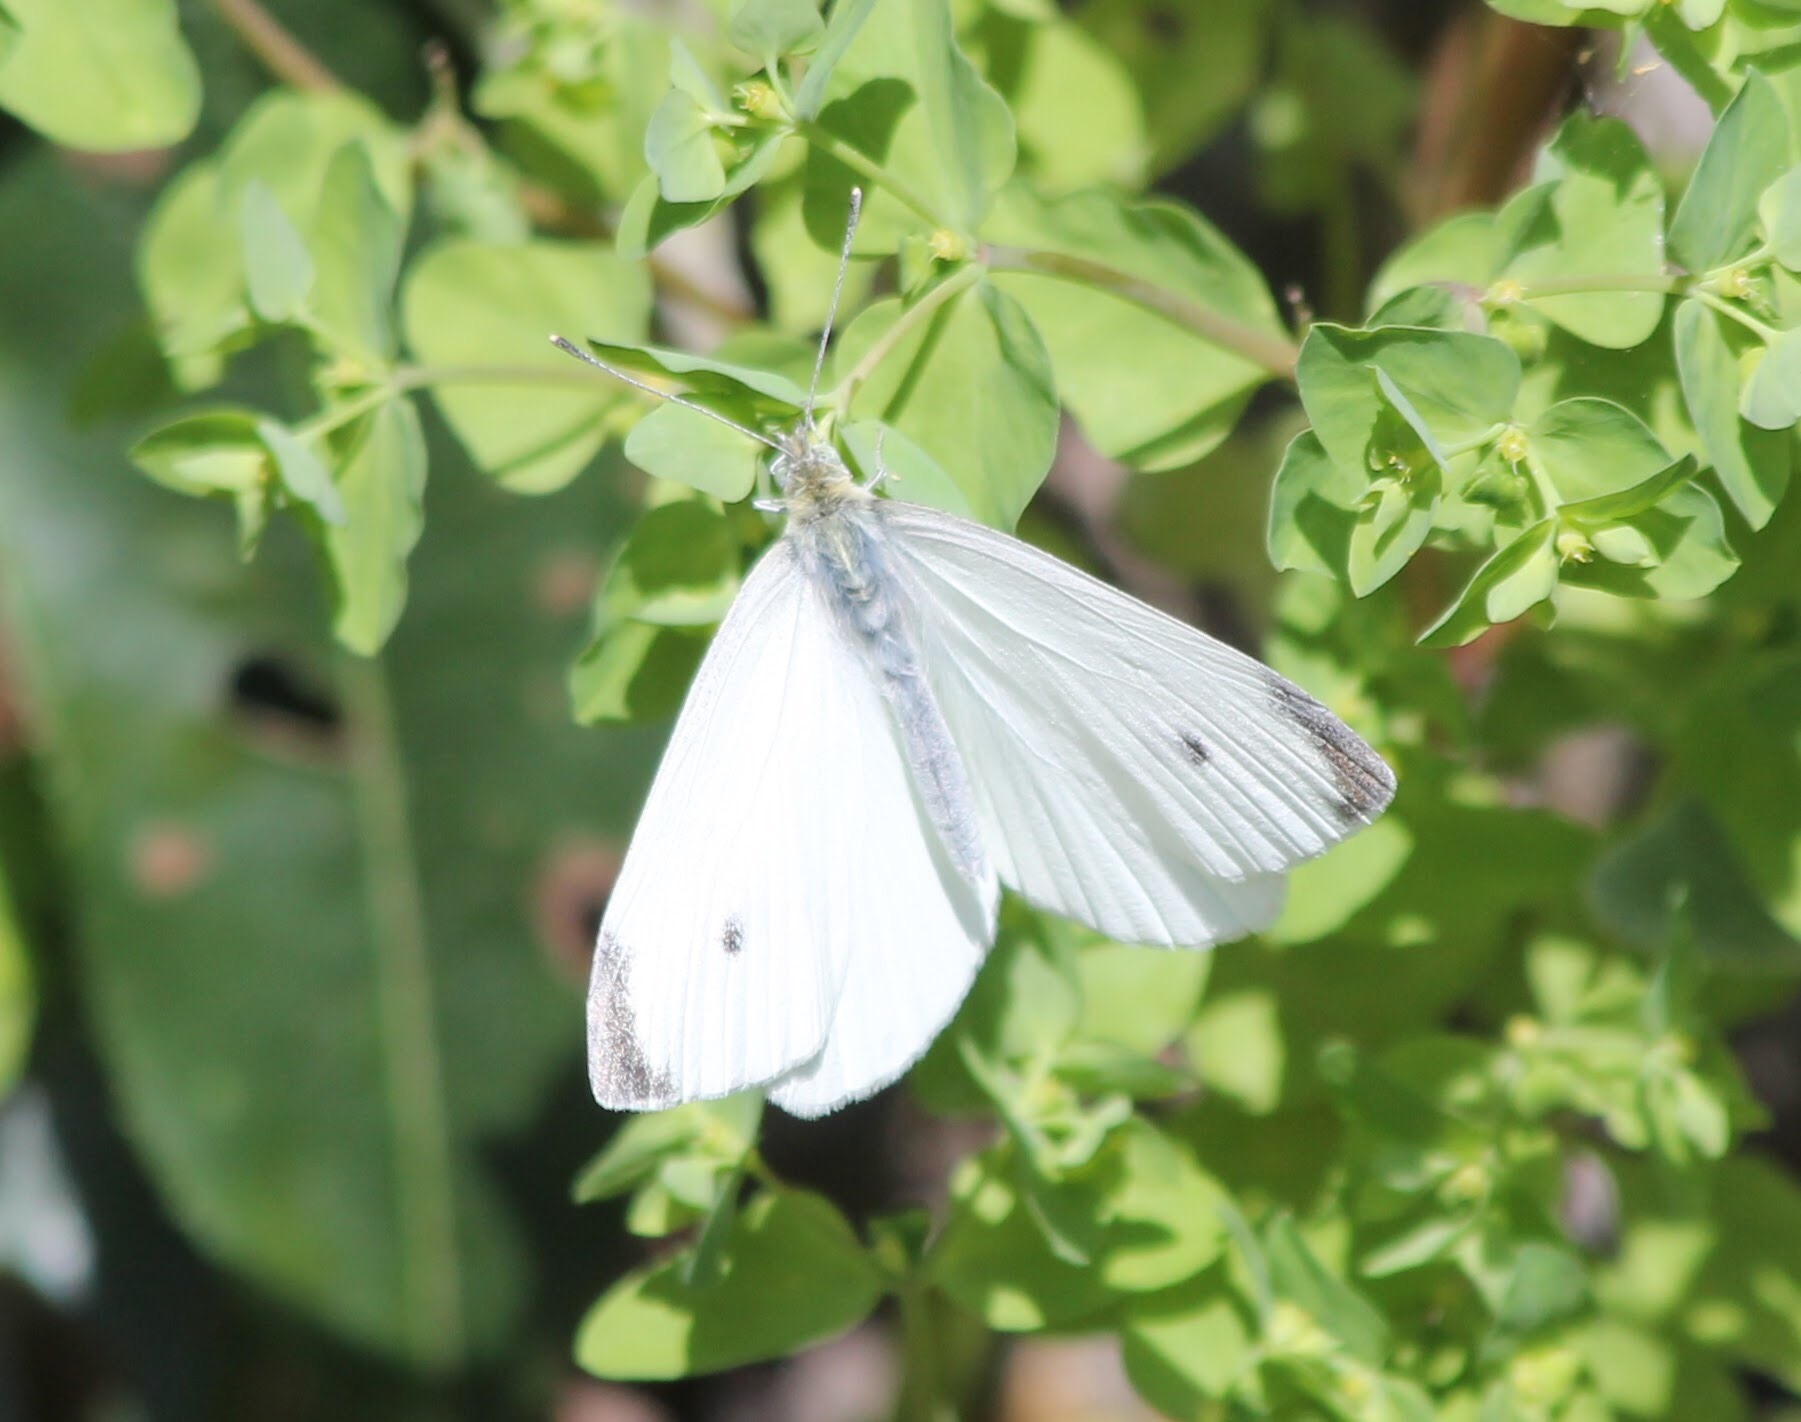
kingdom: Animalia
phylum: Arthropoda
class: Insecta
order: Lepidoptera
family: Pieridae
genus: Pieris
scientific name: Pieris rapae
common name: Small white
